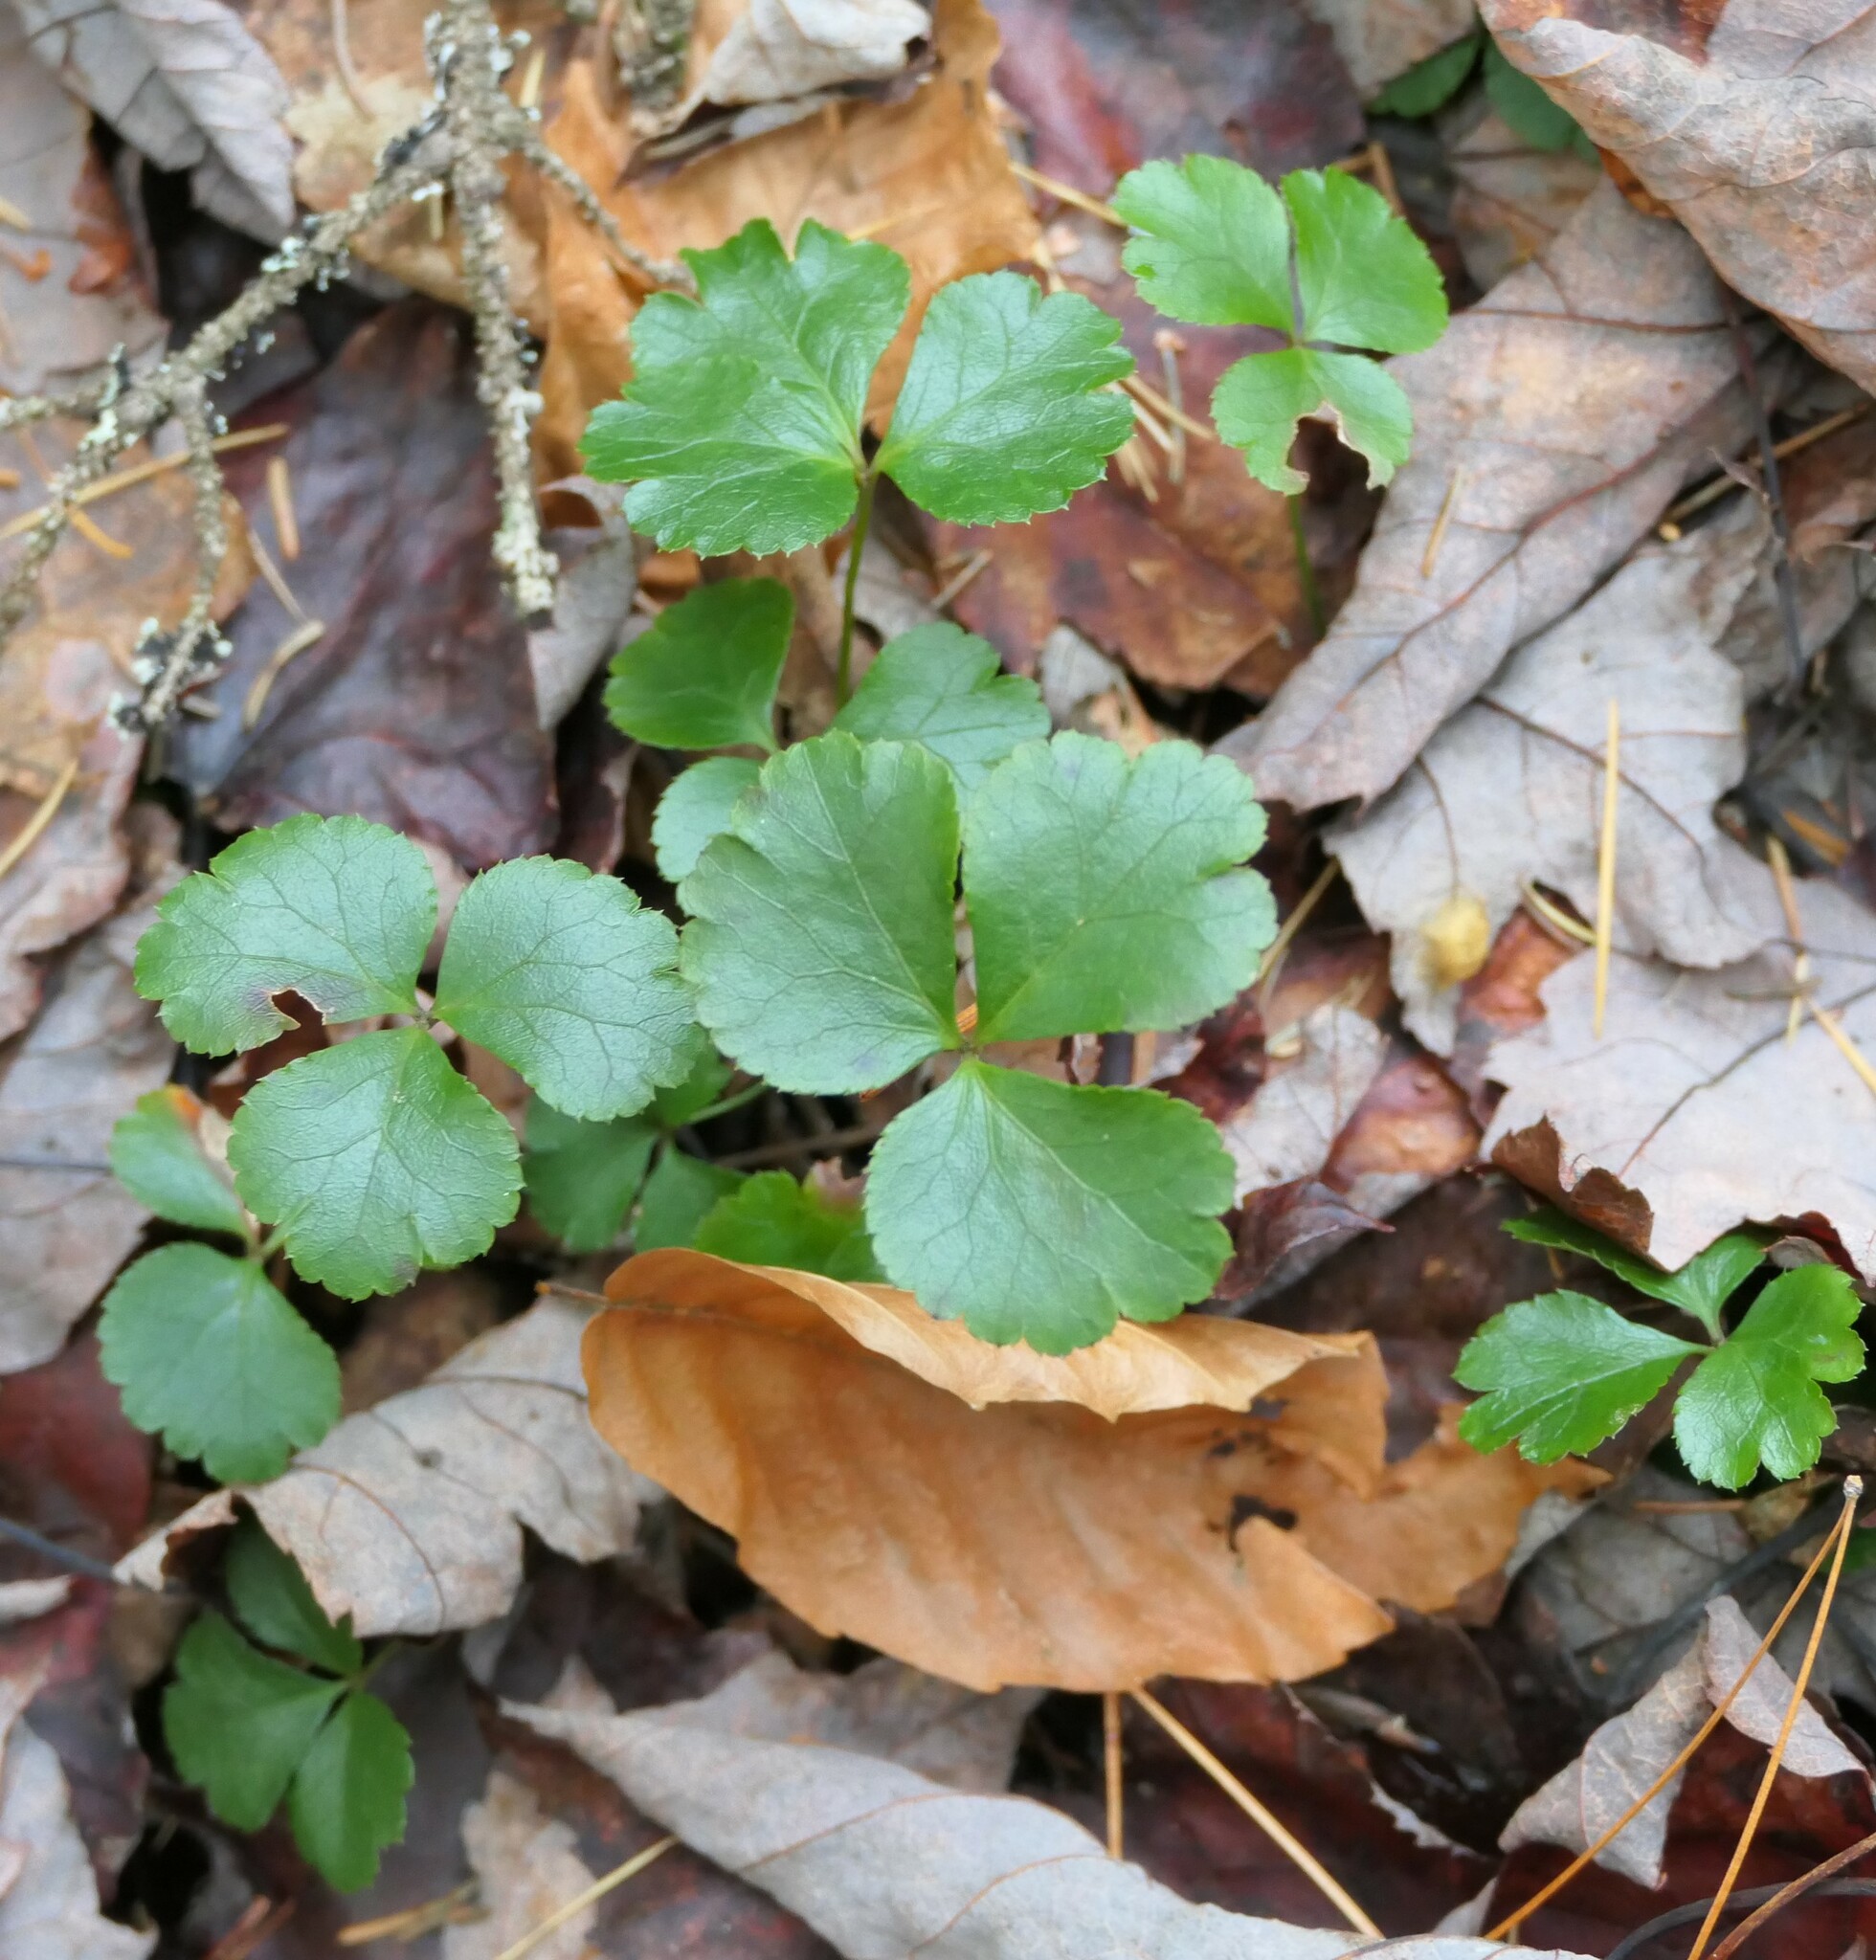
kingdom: Plantae
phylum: Tracheophyta
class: Magnoliopsida
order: Ranunculales
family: Ranunculaceae
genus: Coptis
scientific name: Coptis trifolia
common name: Canker-root
